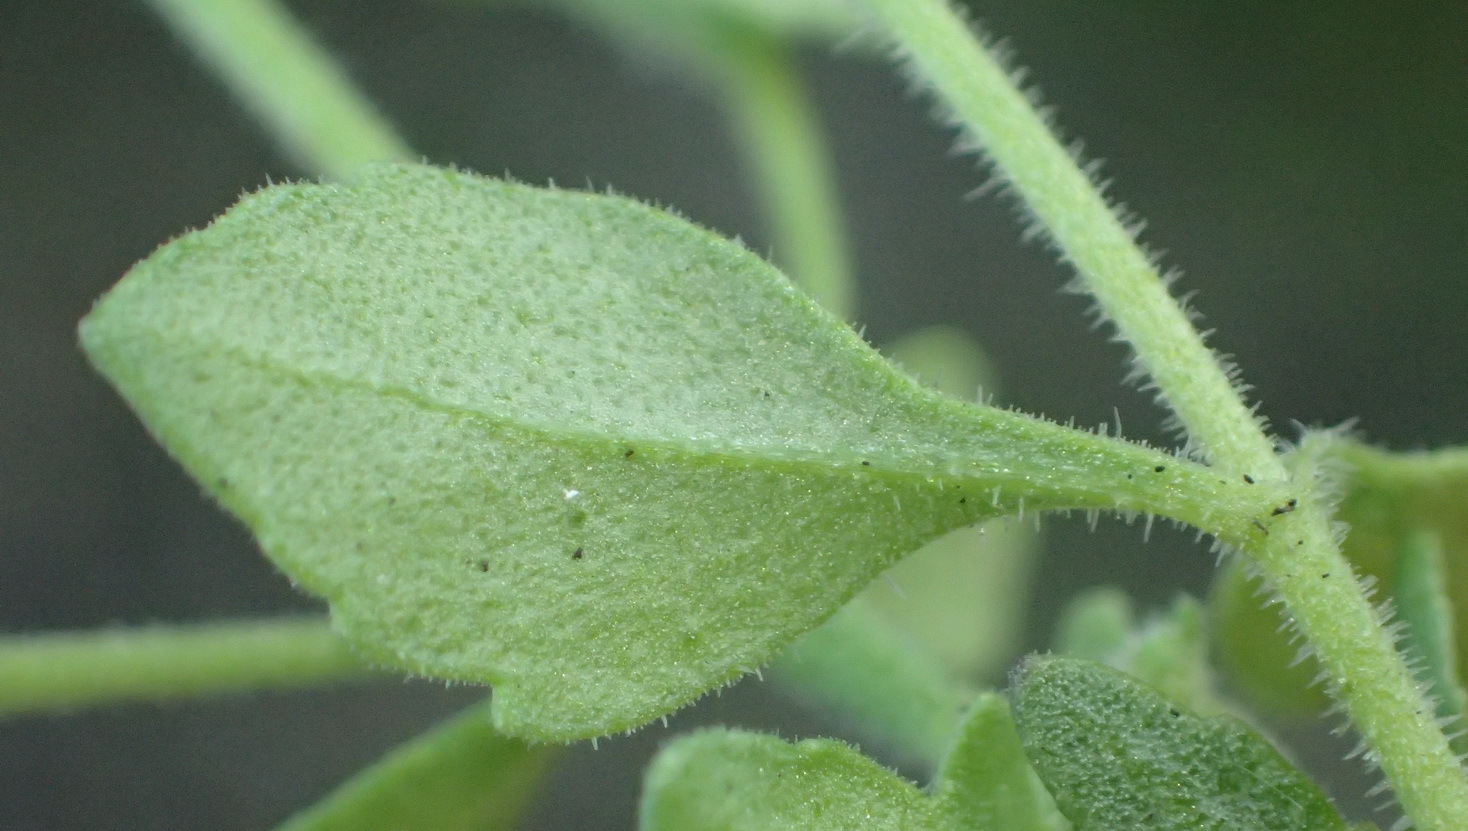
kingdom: Plantae
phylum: Tracheophyta
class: Magnoliopsida
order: Lamiales
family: Scrophulariaceae
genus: Chaenostoma
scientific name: Chaenostoma campanulatum
